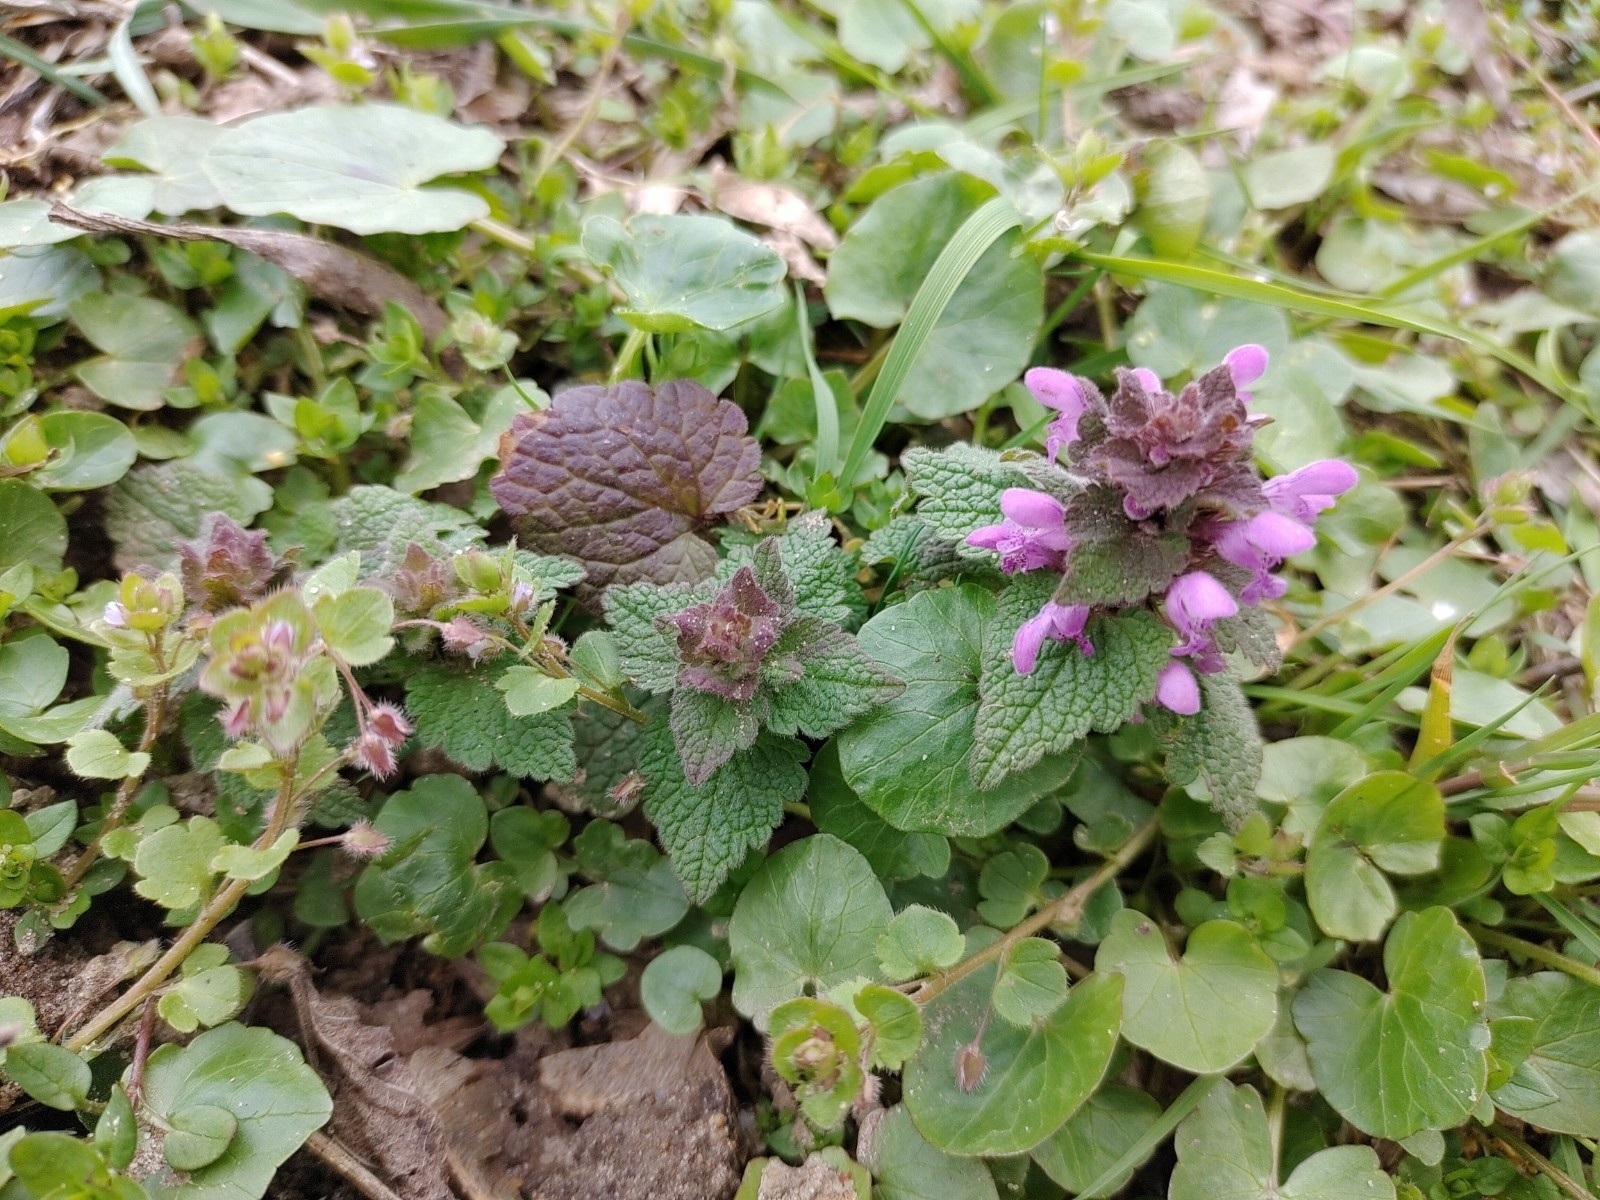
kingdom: Plantae
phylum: Tracheophyta
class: Magnoliopsida
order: Lamiales
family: Lamiaceae
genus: Lamium
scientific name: Lamium purpureum
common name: Red dead-nettle
